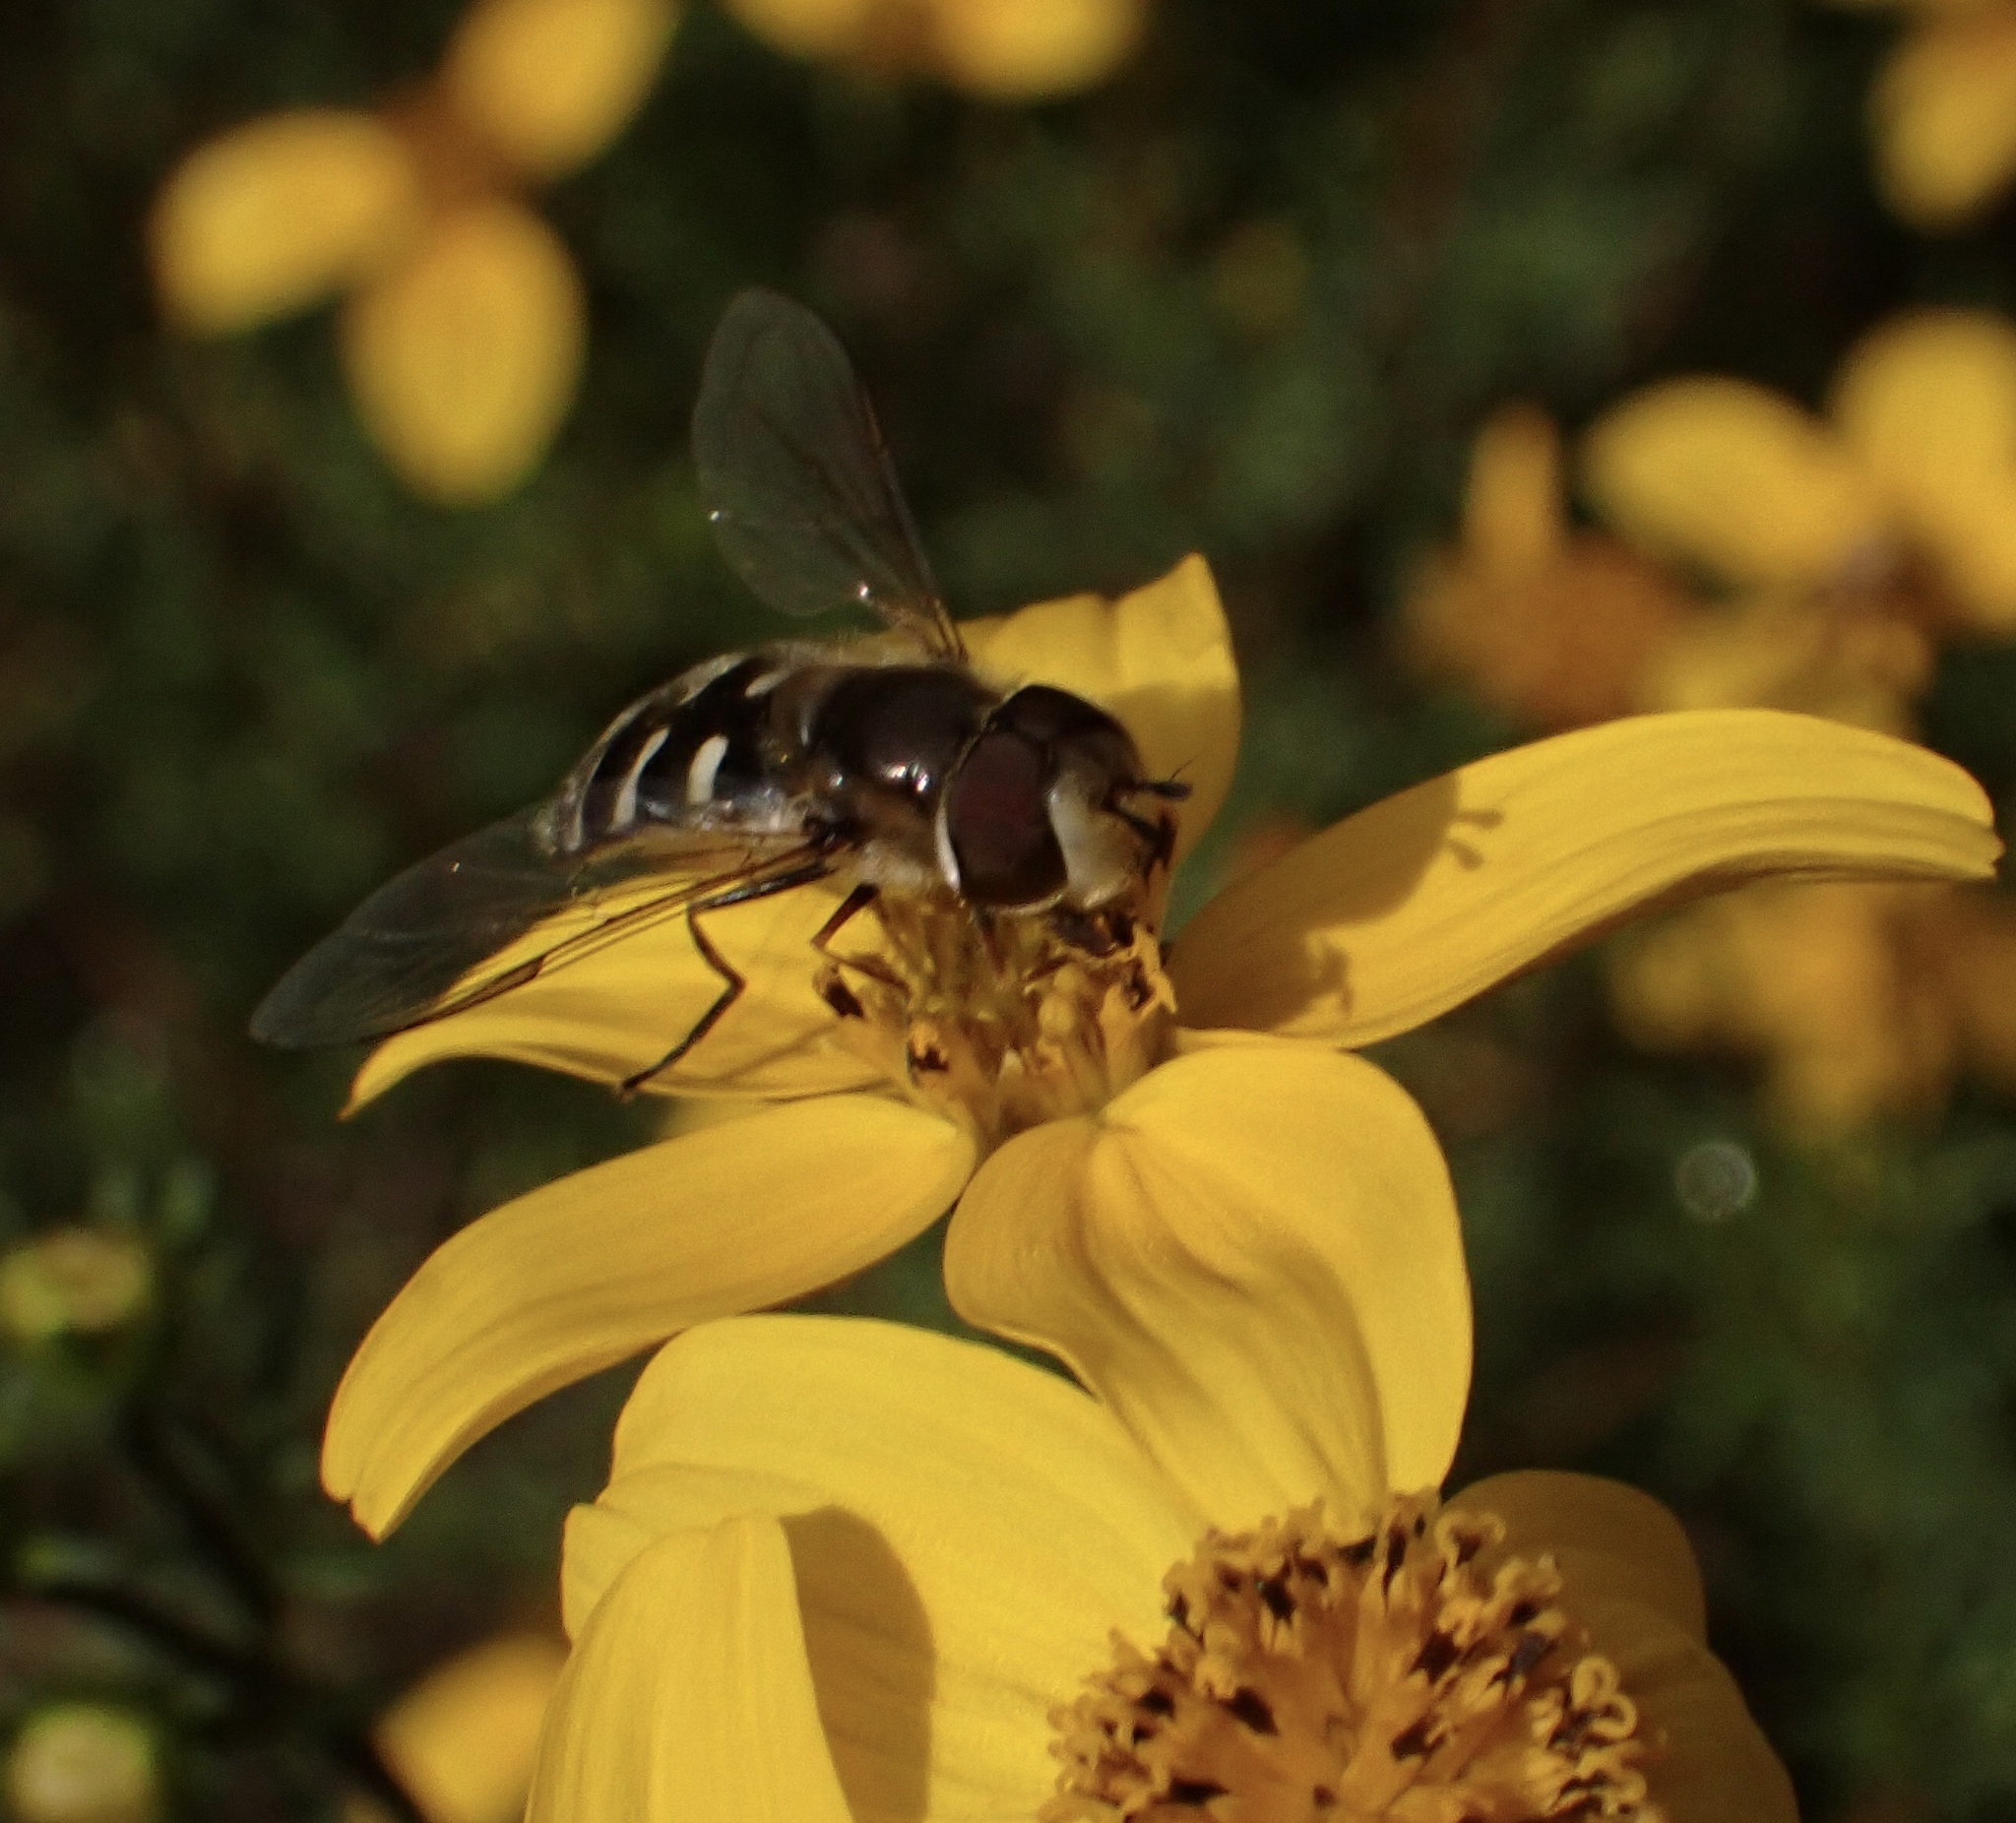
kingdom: Animalia
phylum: Arthropoda
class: Insecta
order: Diptera
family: Syrphidae
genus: Scaeva
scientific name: Scaeva pyrastri
